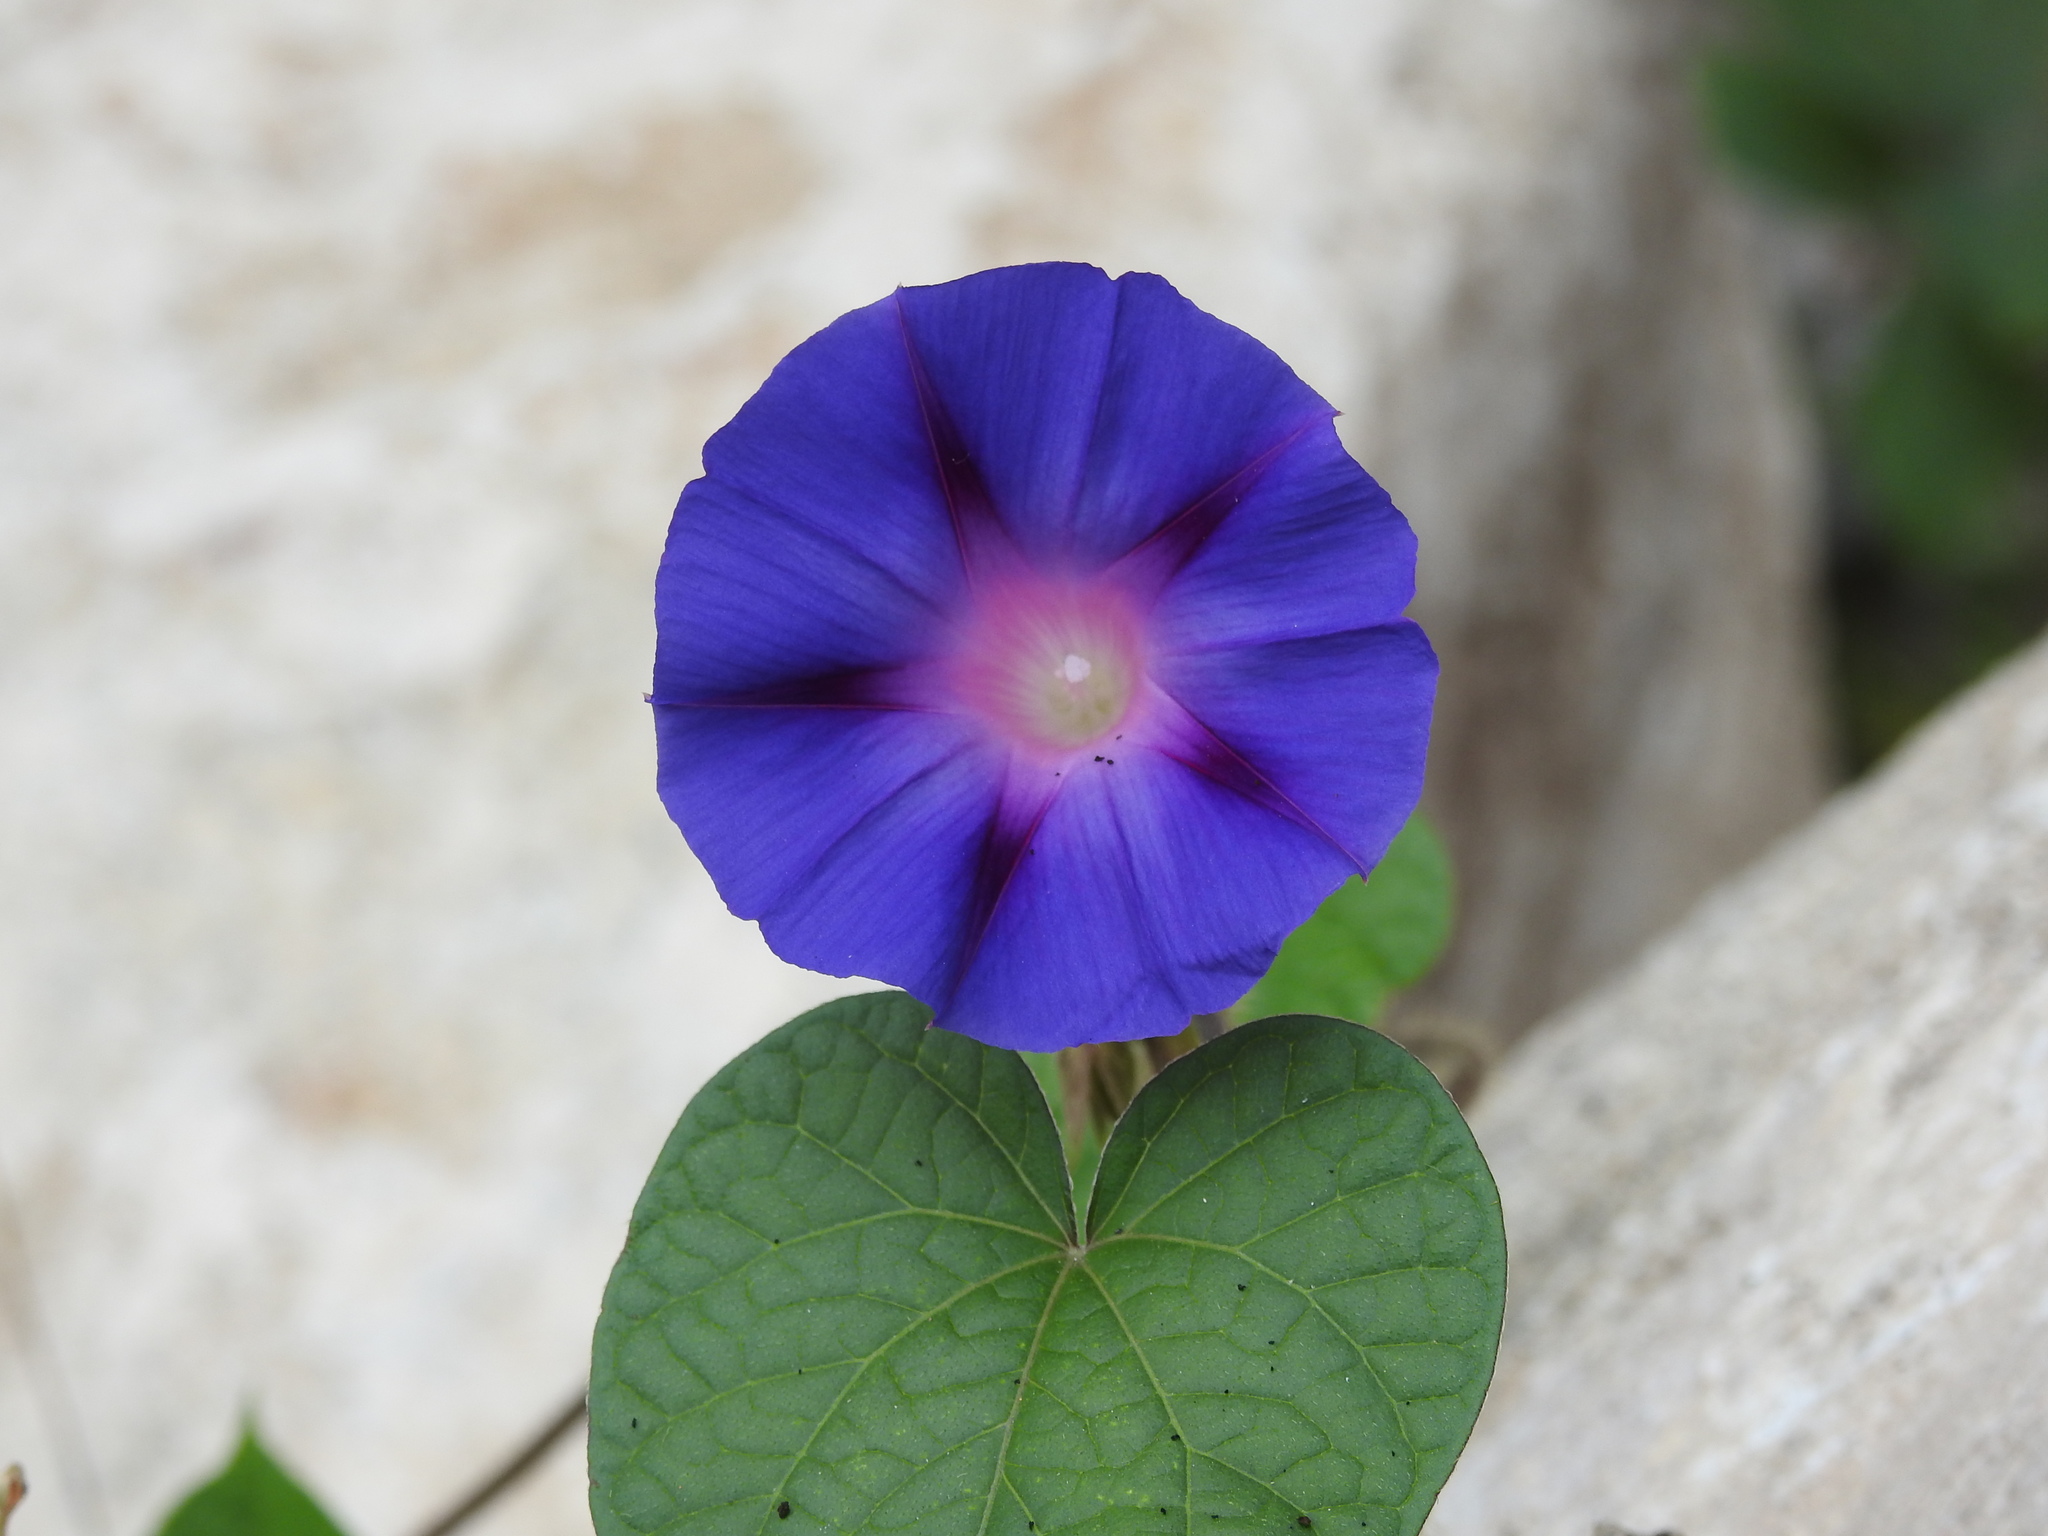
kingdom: Plantae
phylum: Tracheophyta
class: Magnoliopsida
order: Solanales
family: Convolvulaceae
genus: Ipomoea
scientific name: Ipomoea purpurea
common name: Common morning-glory
